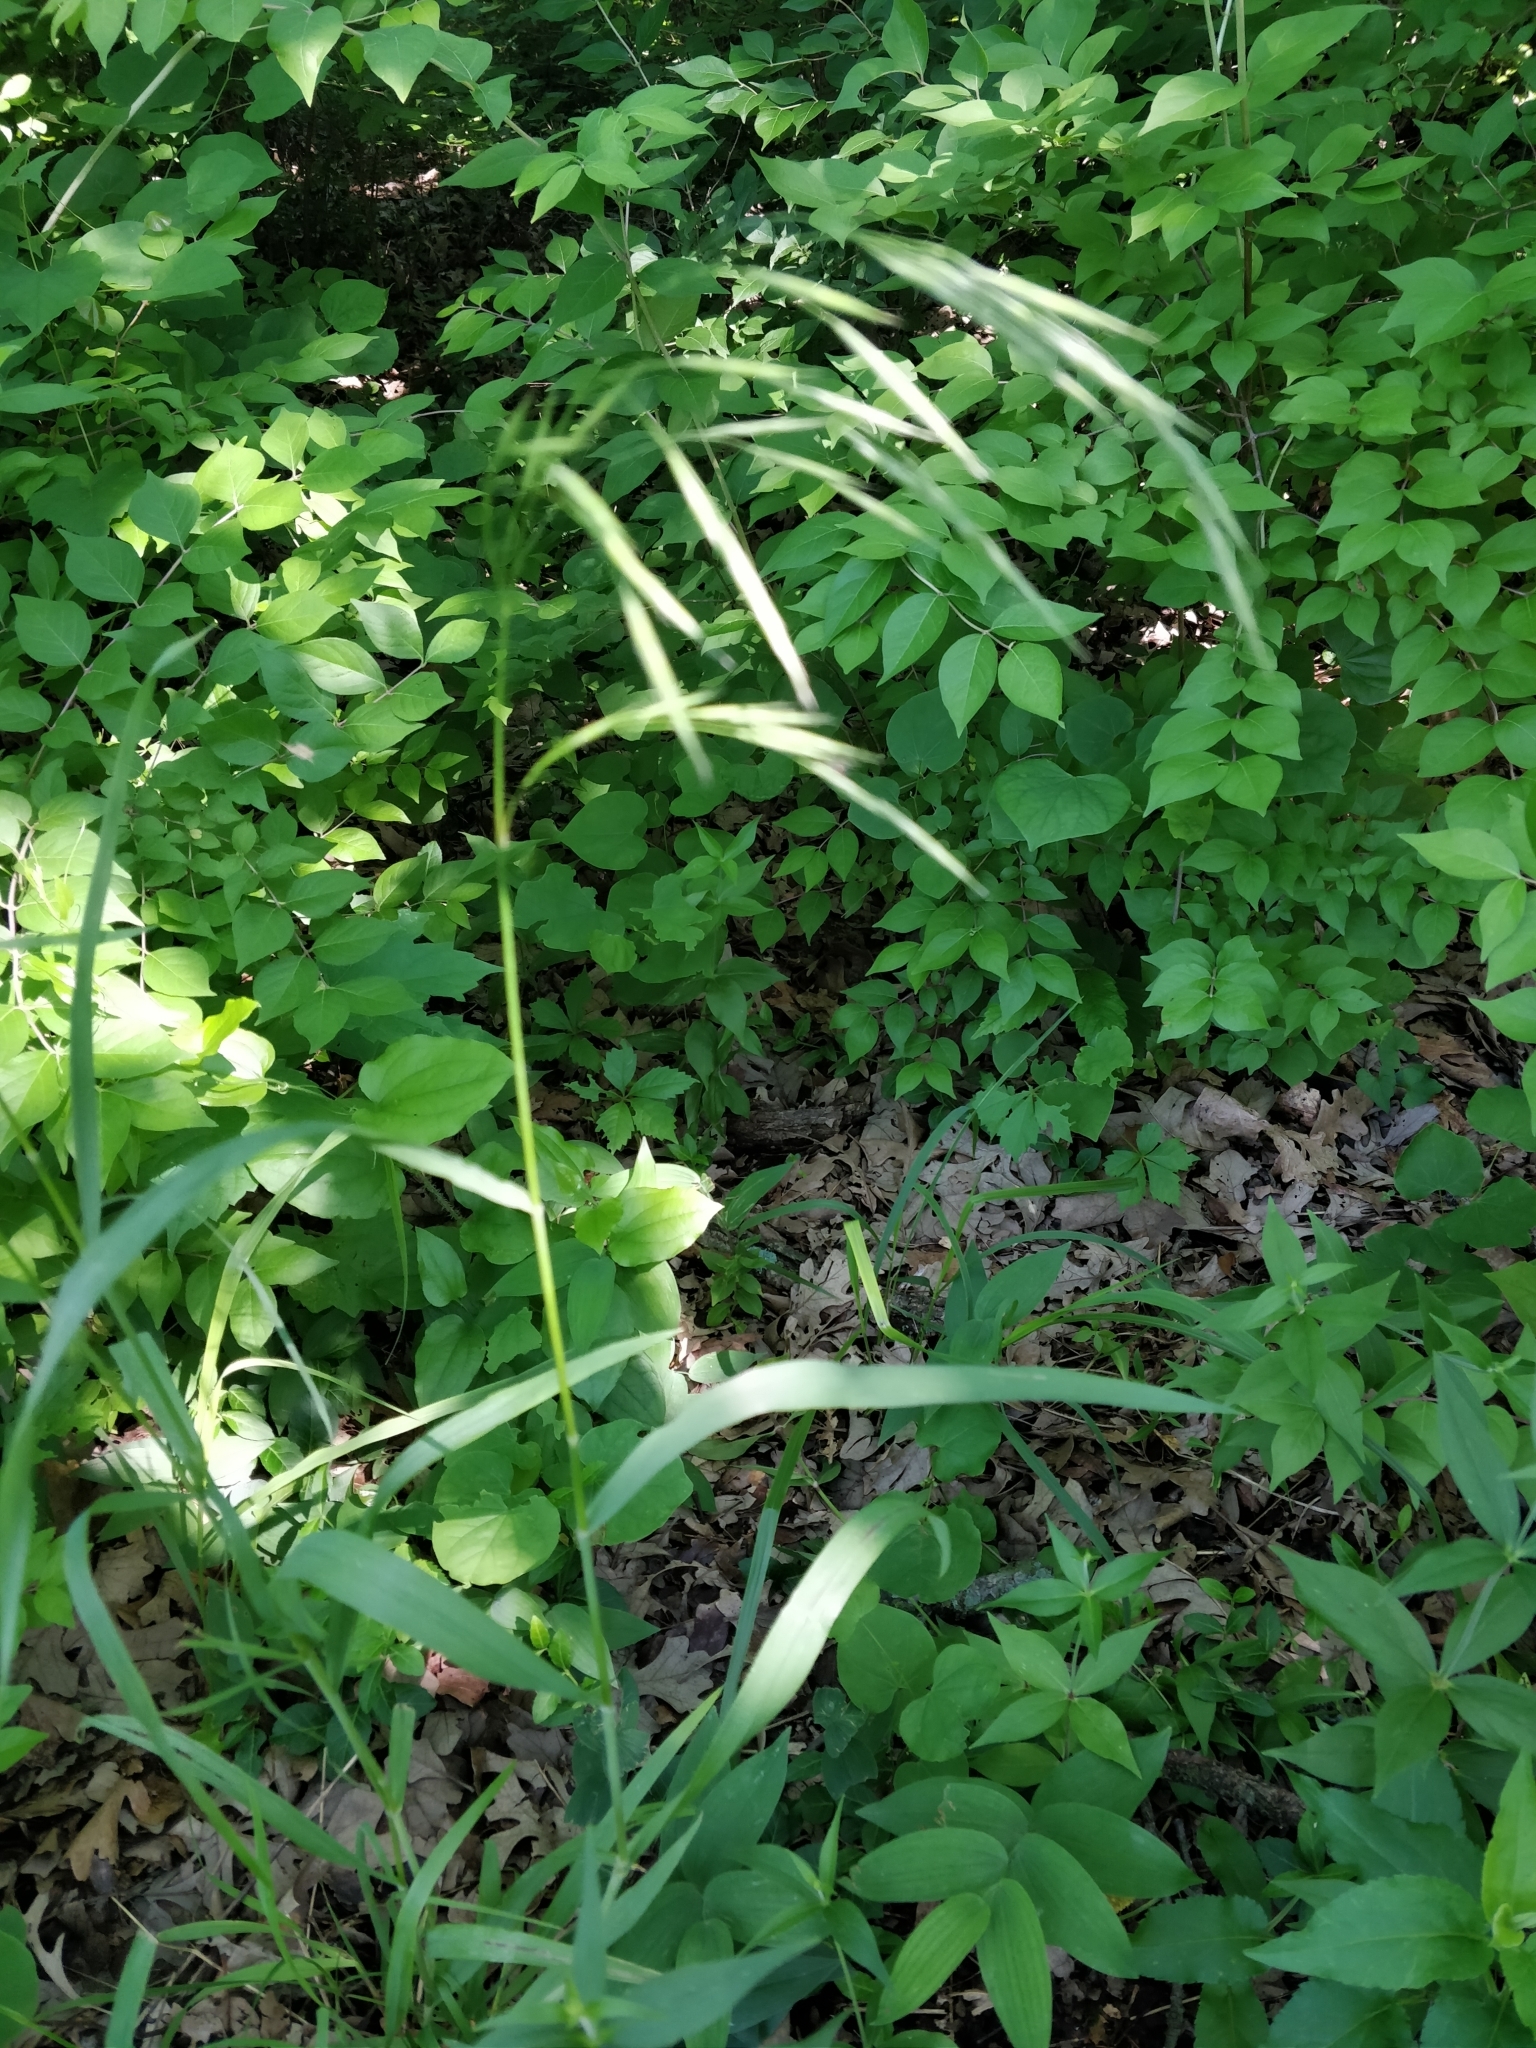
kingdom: Plantae
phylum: Tracheophyta
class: Liliopsida
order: Poales
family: Poaceae
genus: Bromus
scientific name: Bromus pubescens
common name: Hairy wood brome grass
